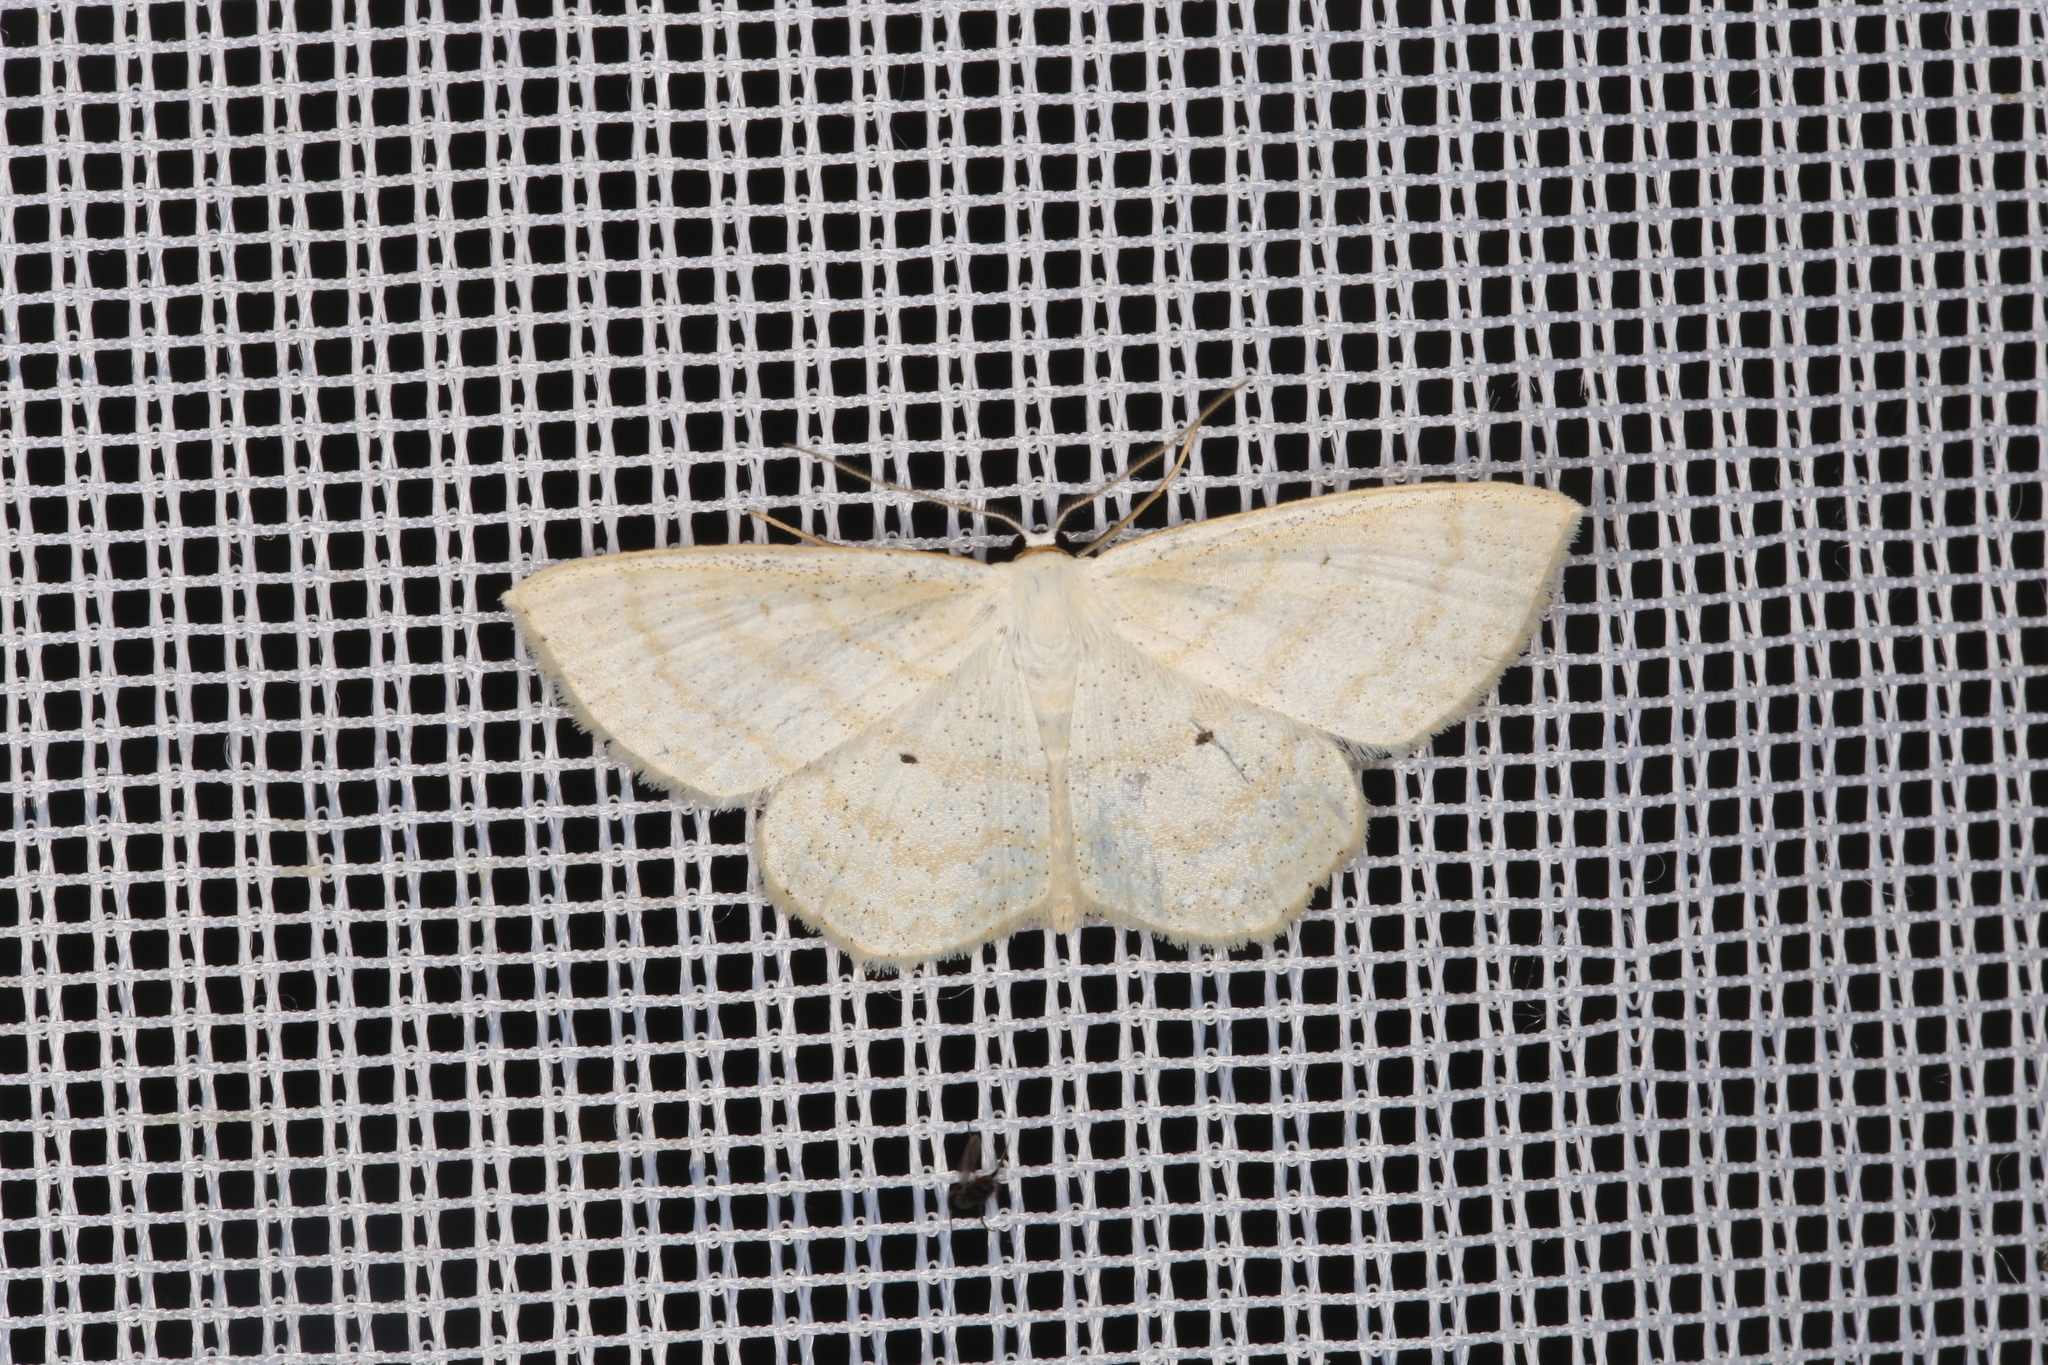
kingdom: Animalia
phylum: Arthropoda
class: Insecta
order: Lepidoptera
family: Geometridae
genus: Scopula
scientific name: Scopula immutata
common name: Lesser cream wave
